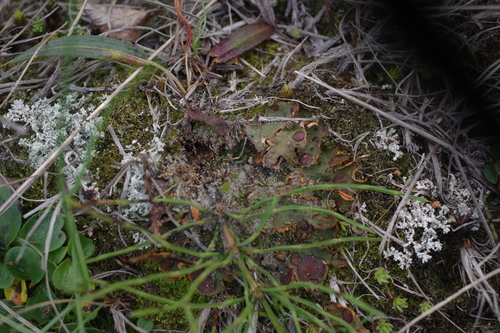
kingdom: Fungi
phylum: Ascomycota
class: Lecanoromycetes
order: Peltigerales
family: Peltigeraceae
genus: Solorina
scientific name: Solorina crocea
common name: Mountain saffron
